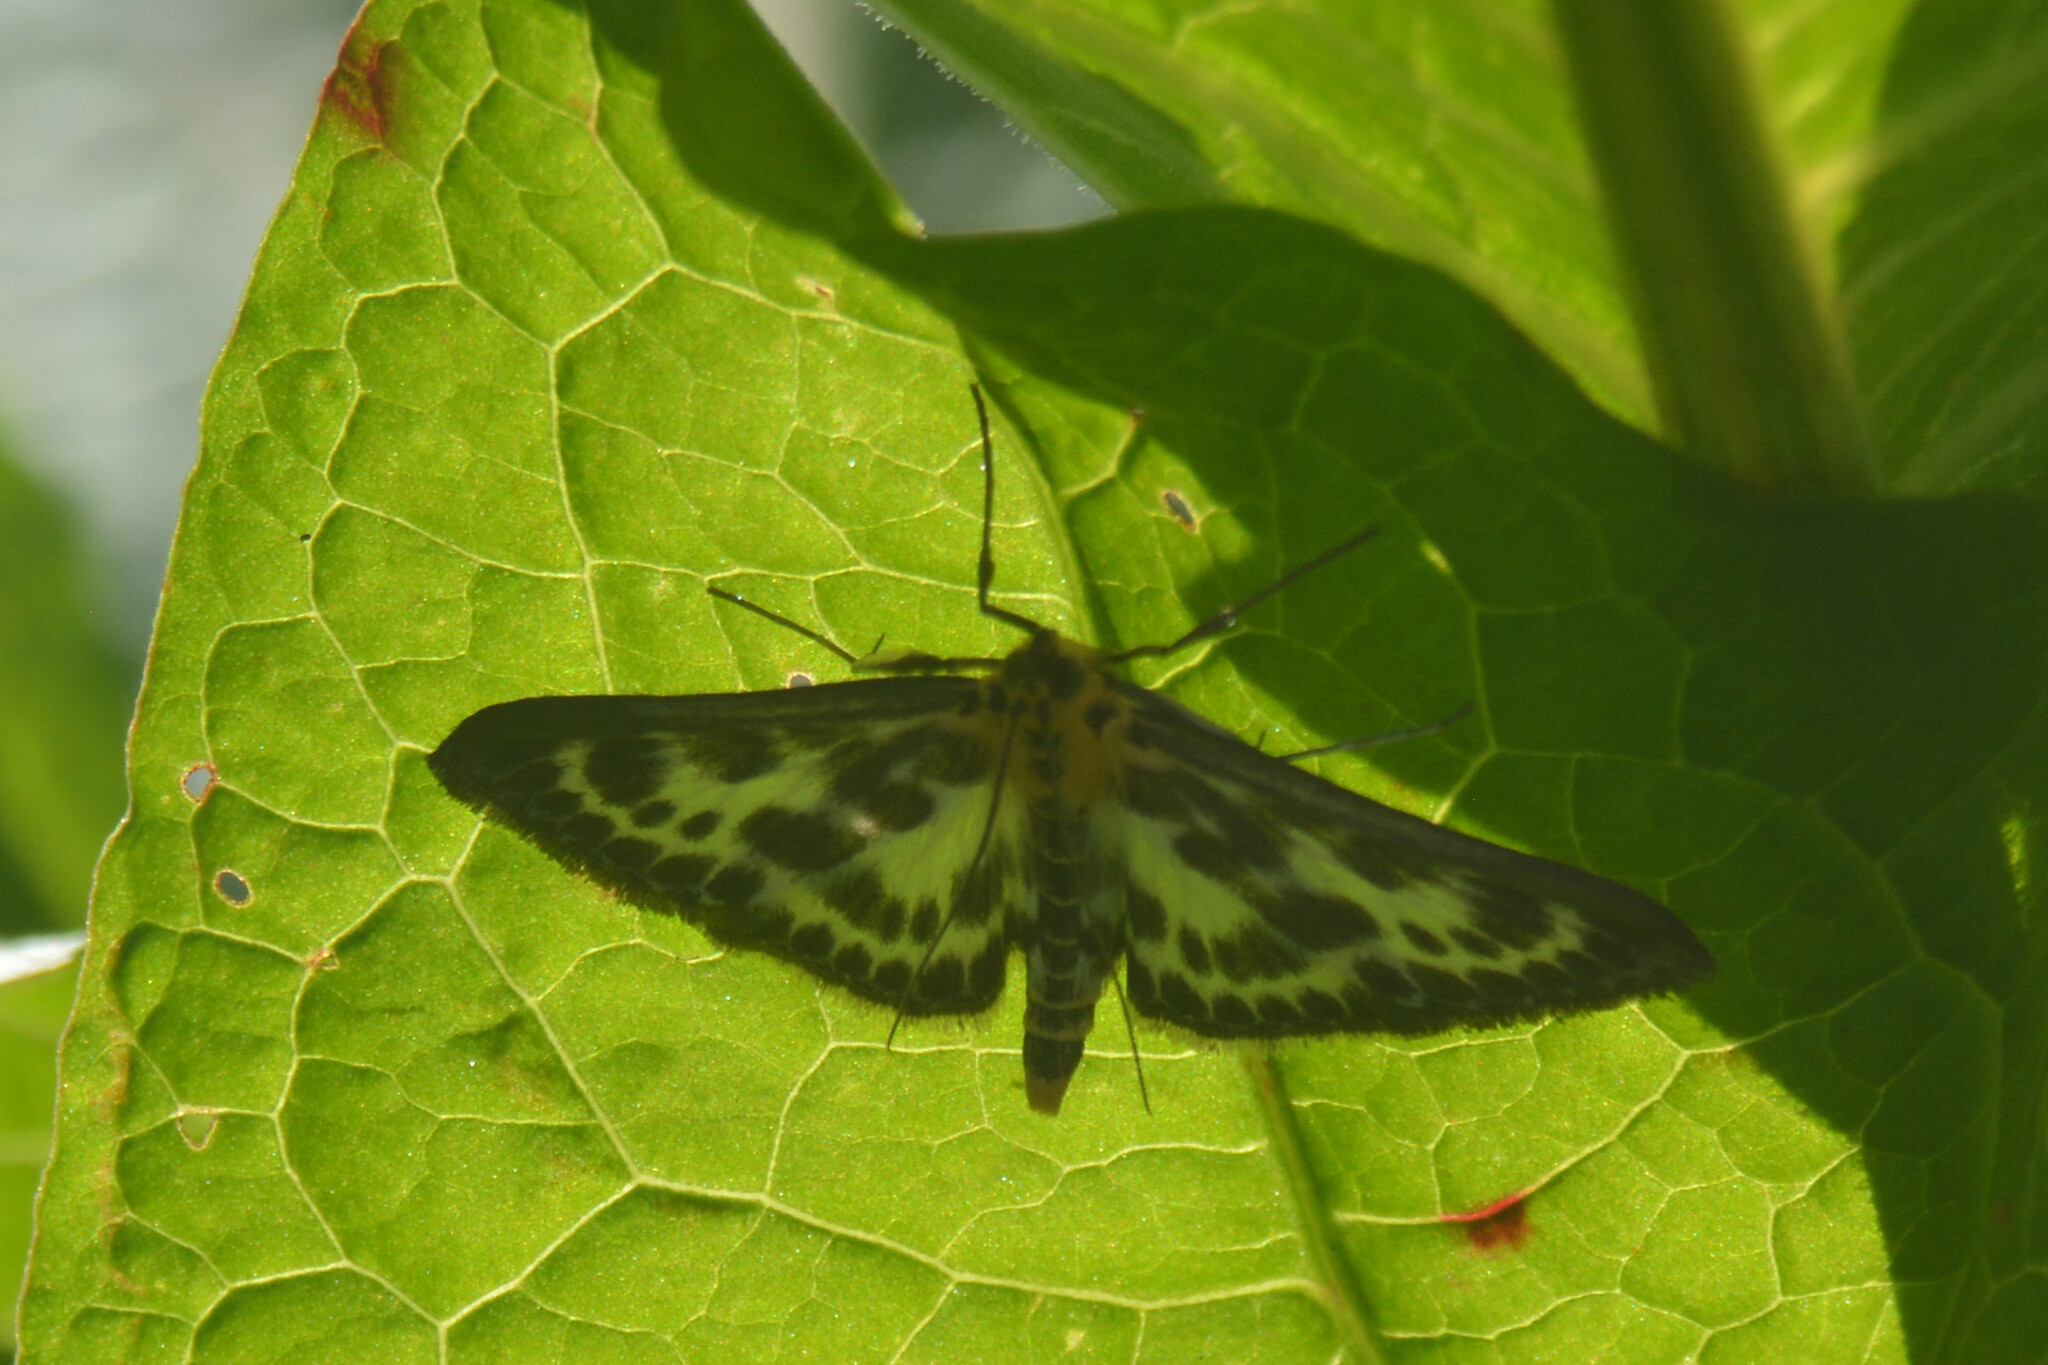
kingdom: Animalia
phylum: Arthropoda
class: Insecta
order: Lepidoptera
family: Crambidae
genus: Anania
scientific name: Anania hortulata
